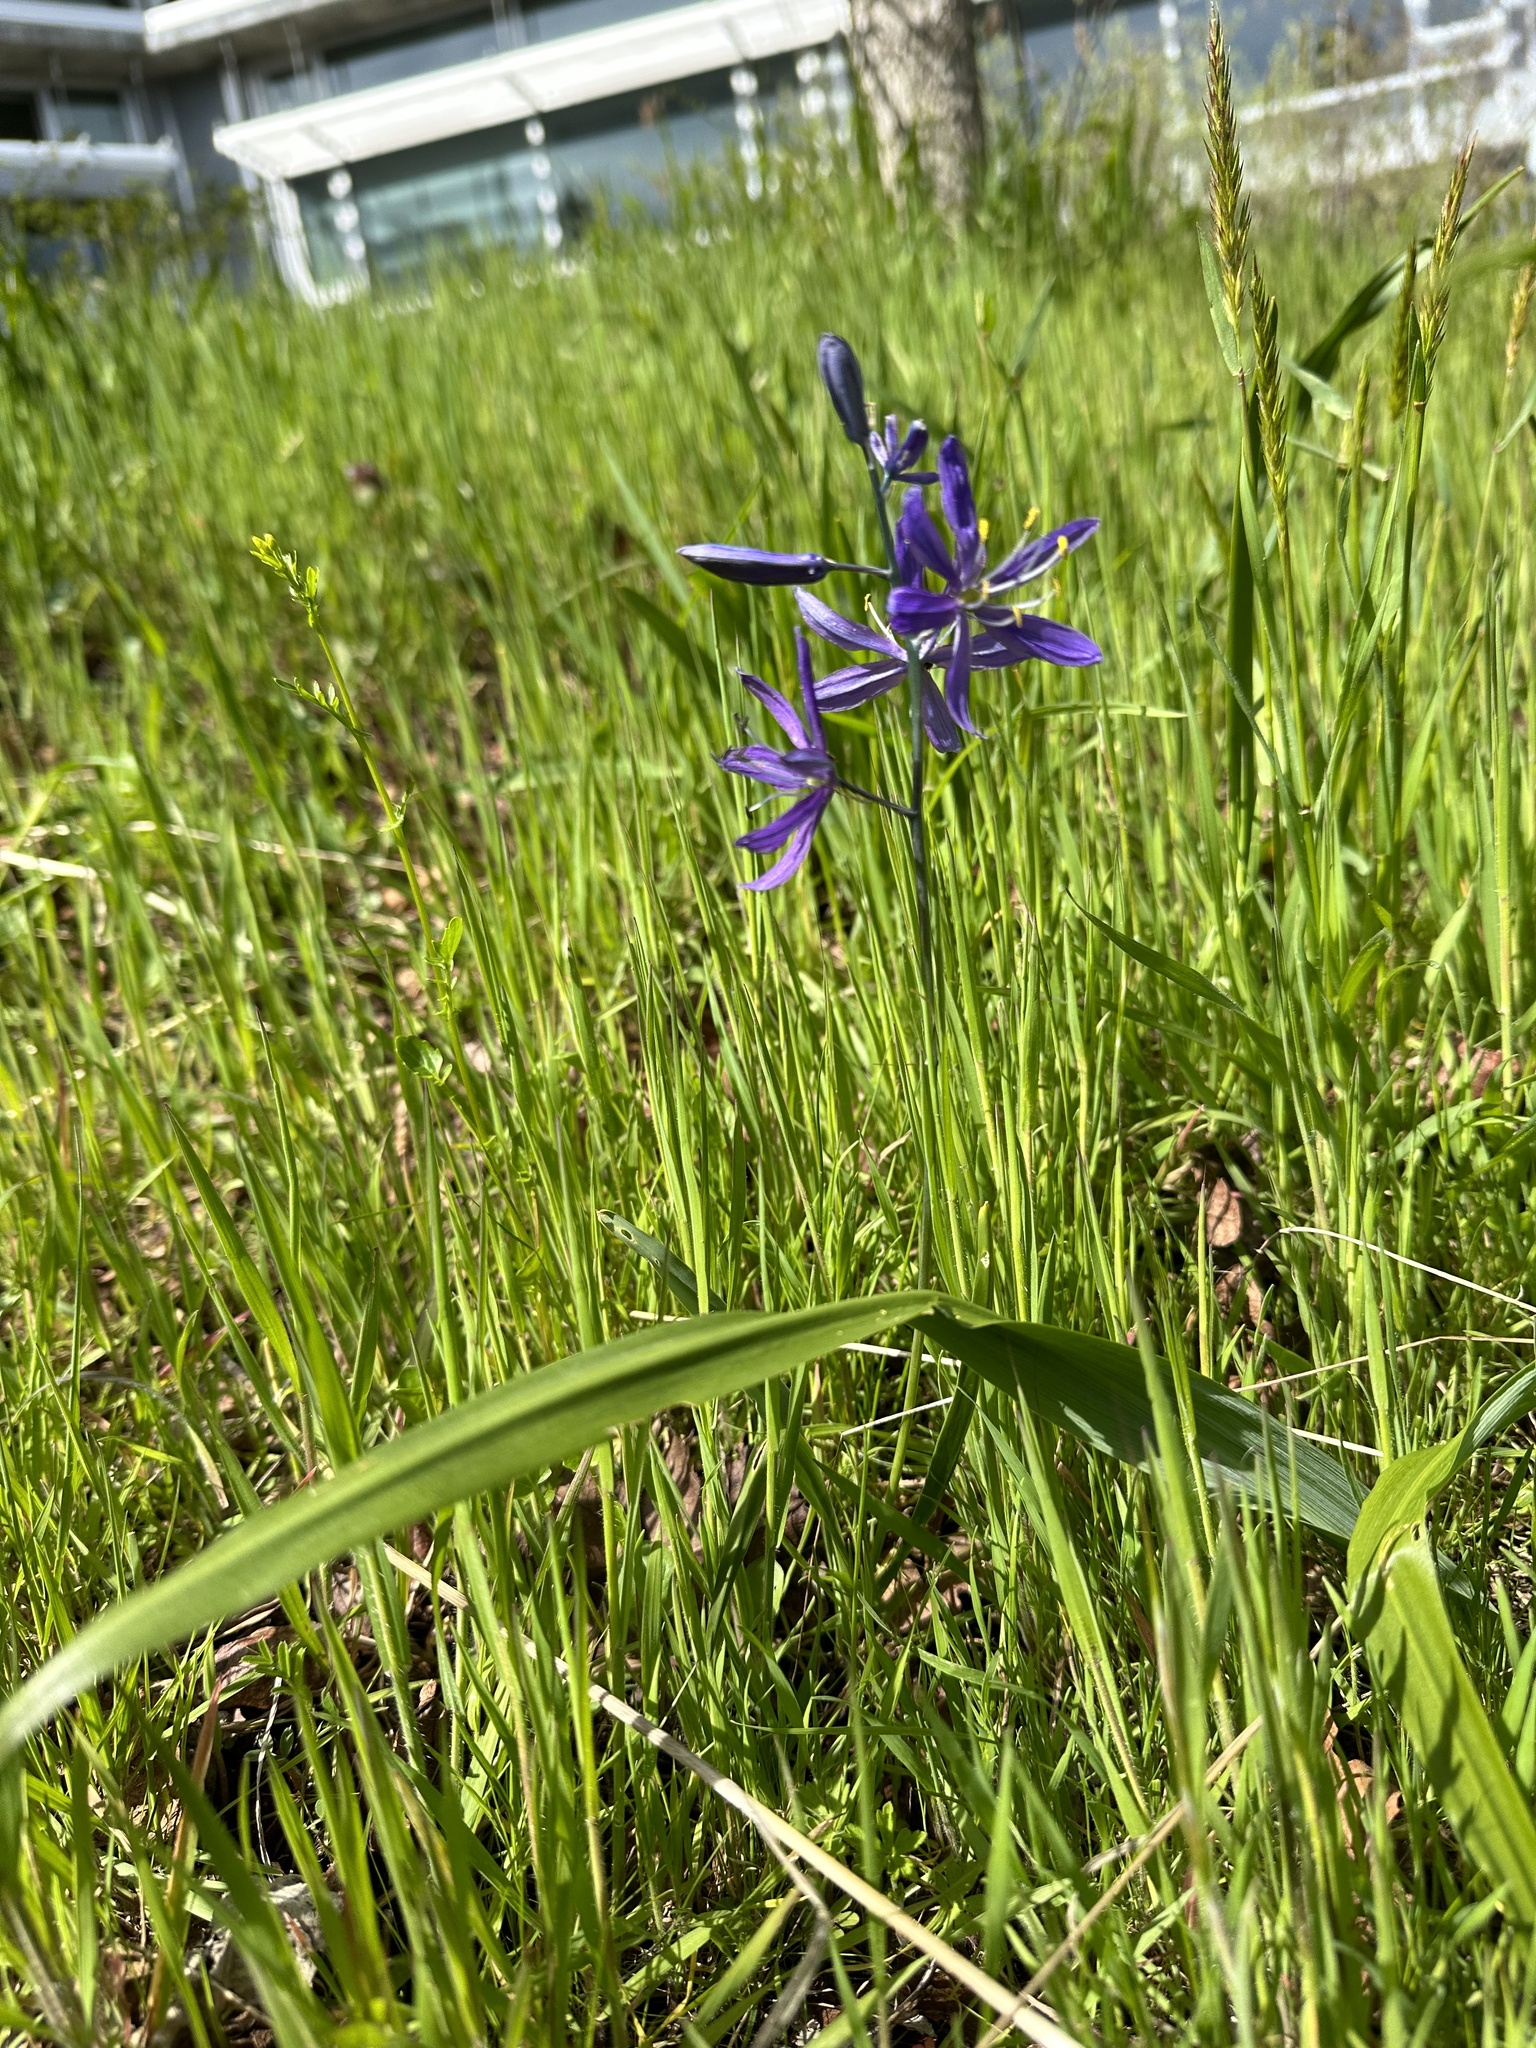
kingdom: Plantae
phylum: Tracheophyta
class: Liliopsida
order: Asparagales
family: Asparagaceae
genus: Camassia
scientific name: Camassia quamash
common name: Common camas
